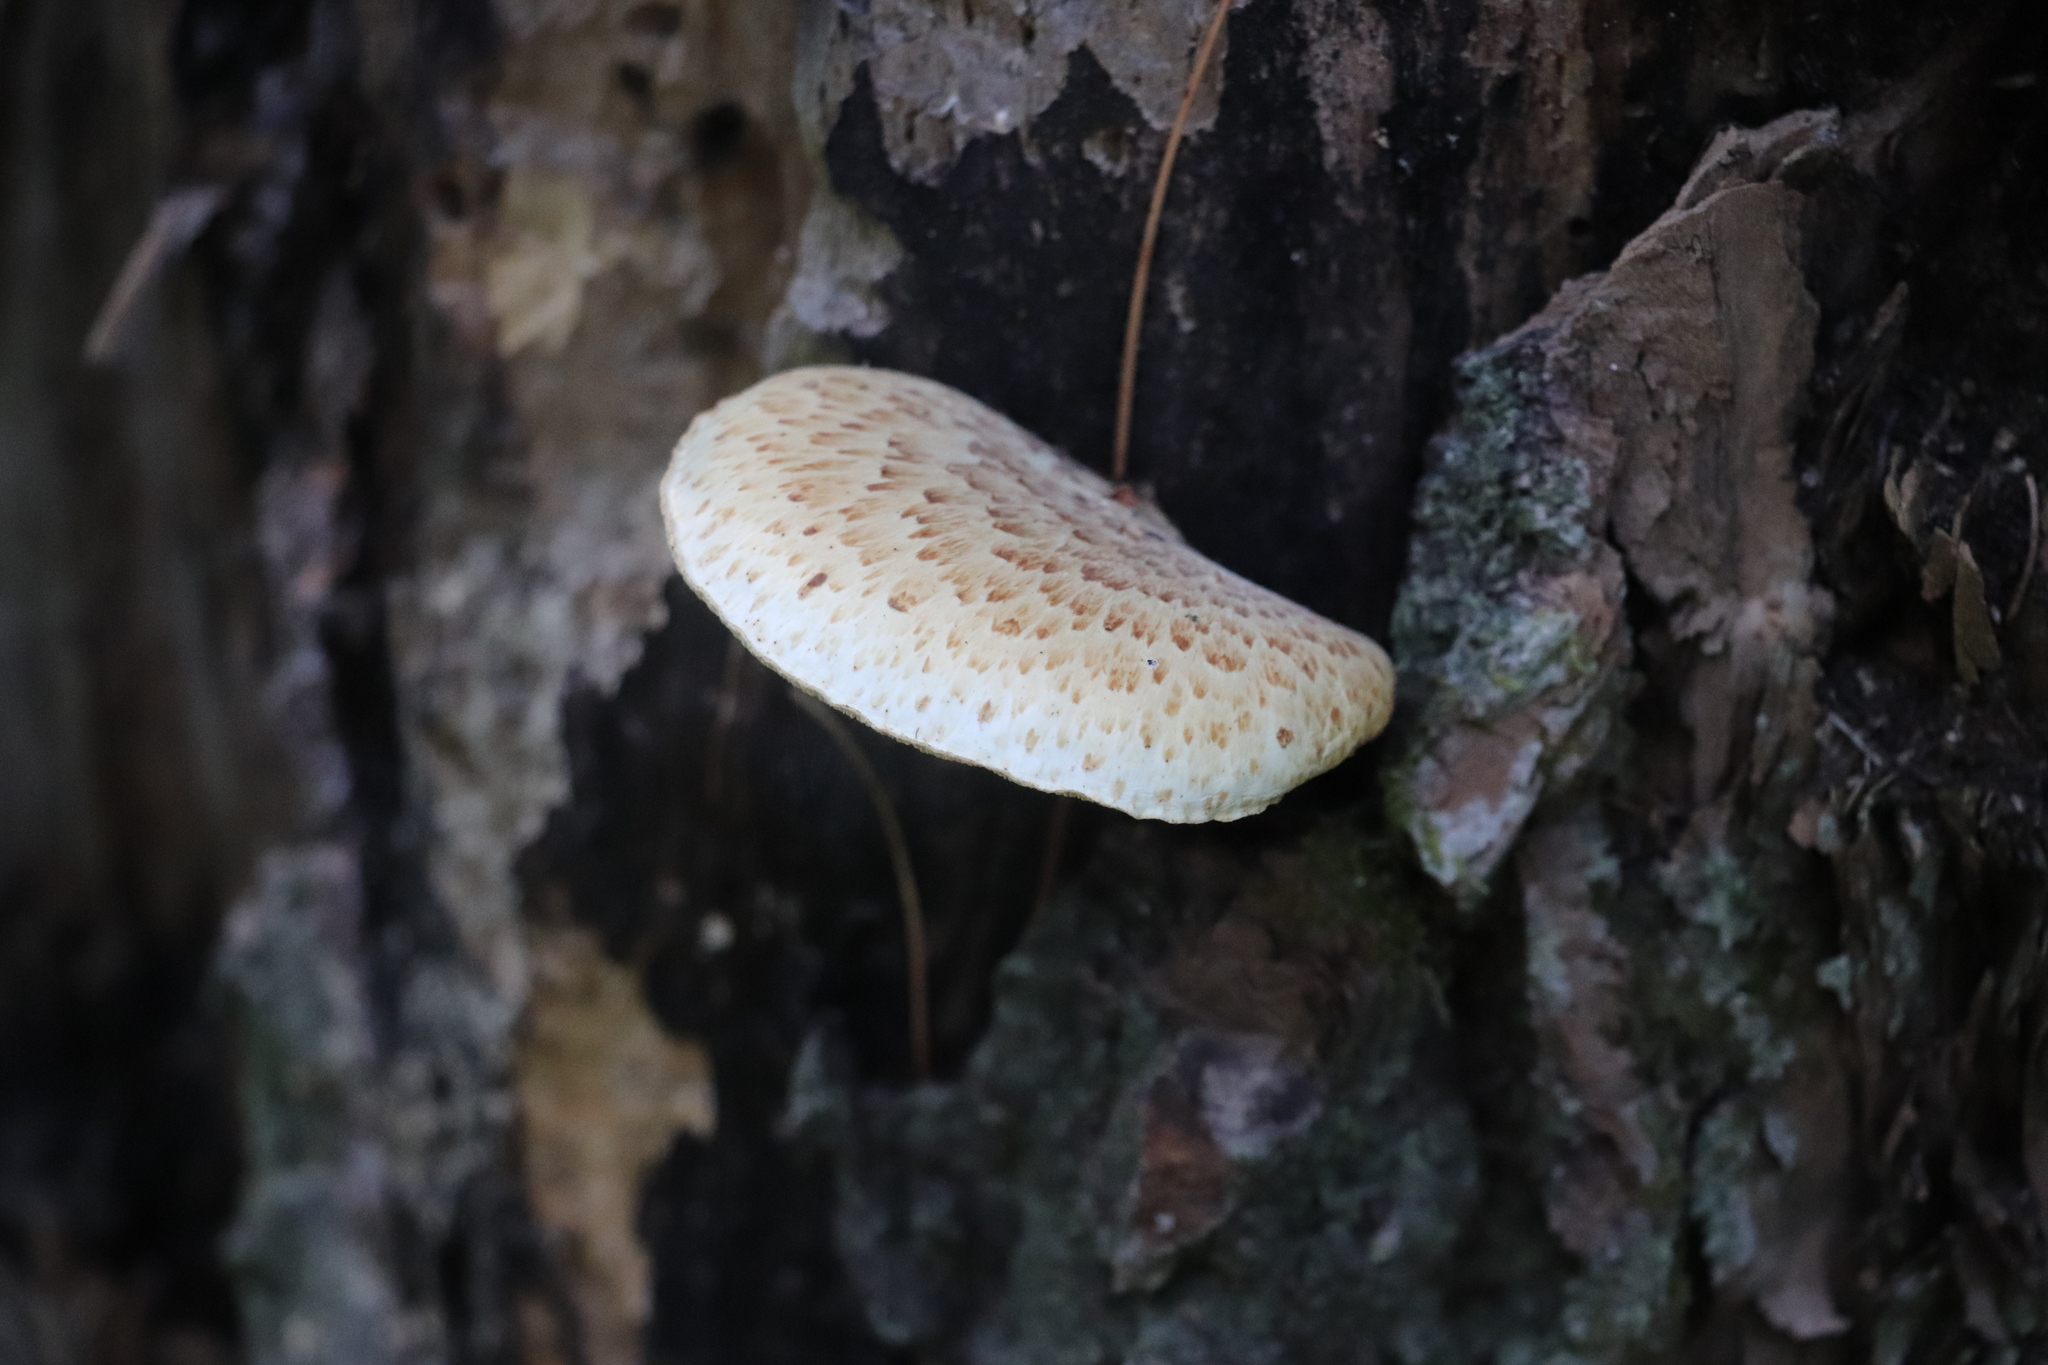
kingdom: Fungi
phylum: Basidiomycota
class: Agaricomycetes
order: Polyporales
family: Polyporaceae
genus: Cerioporus
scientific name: Cerioporus squamosus
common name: Dryad's saddle
